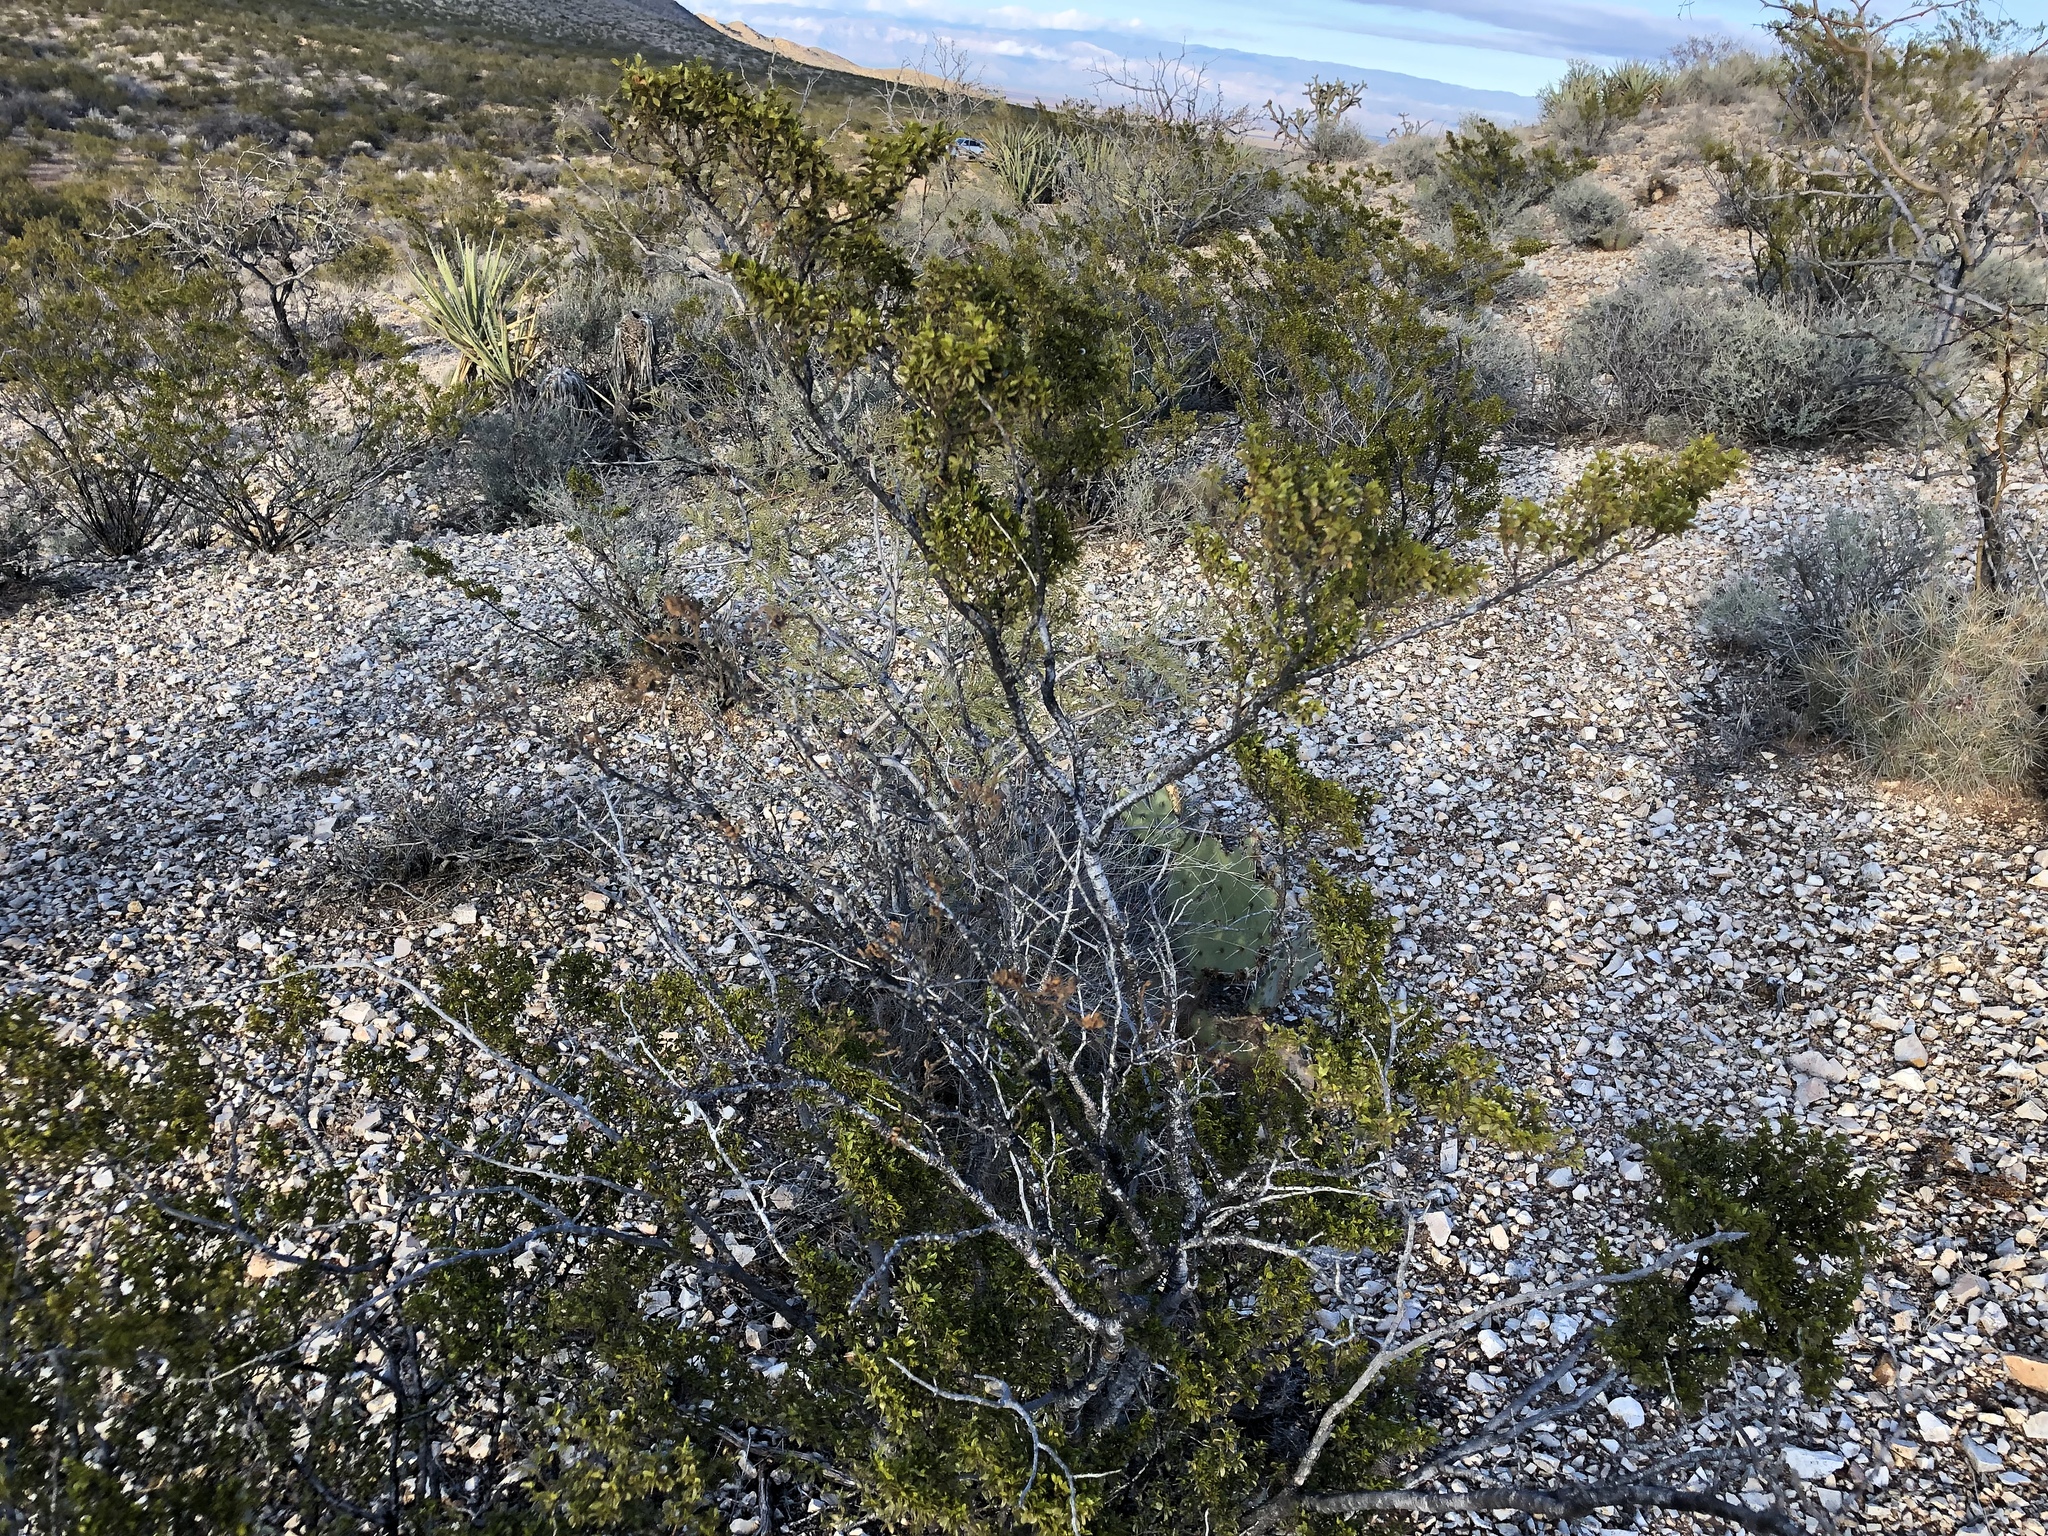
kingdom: Plantae
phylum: Tracheophyta
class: Magnoliopsida
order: Zygophyllales
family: Zygophyllaceae
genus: Larrea
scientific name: Larrea tridentata
